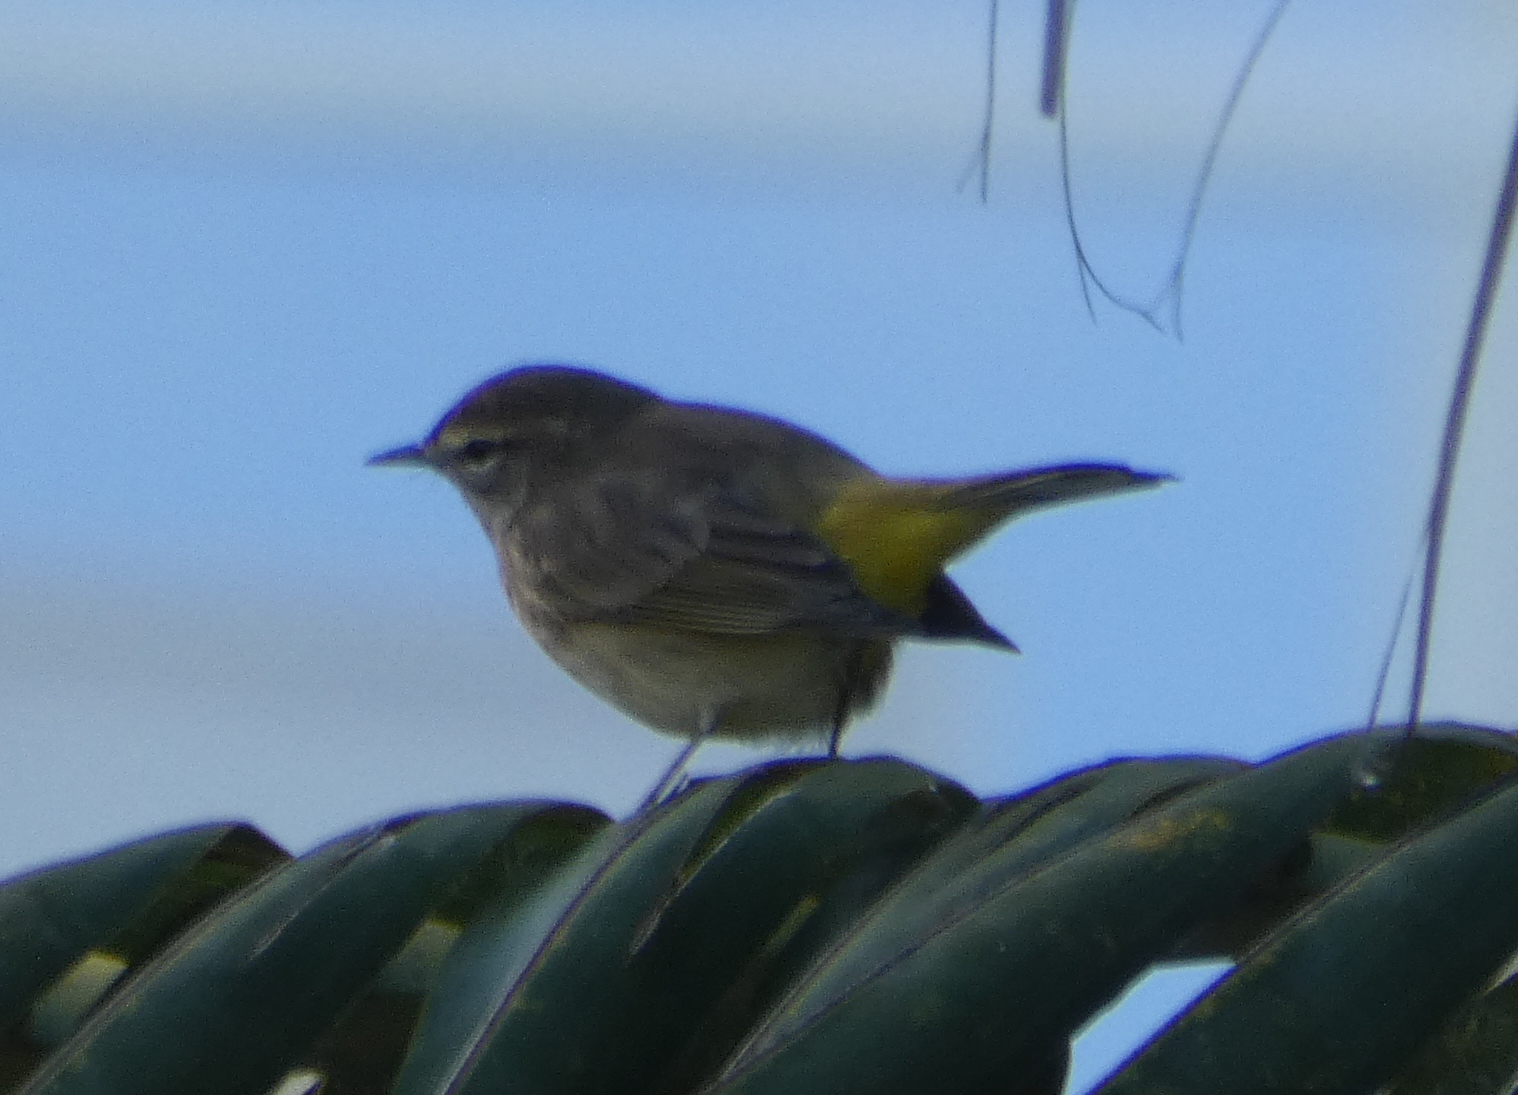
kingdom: Animalia
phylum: Chordata
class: Aves
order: Passeriformes
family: Parulidae
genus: Setophaga
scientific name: Setophaga palmarum
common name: Palm warbler
